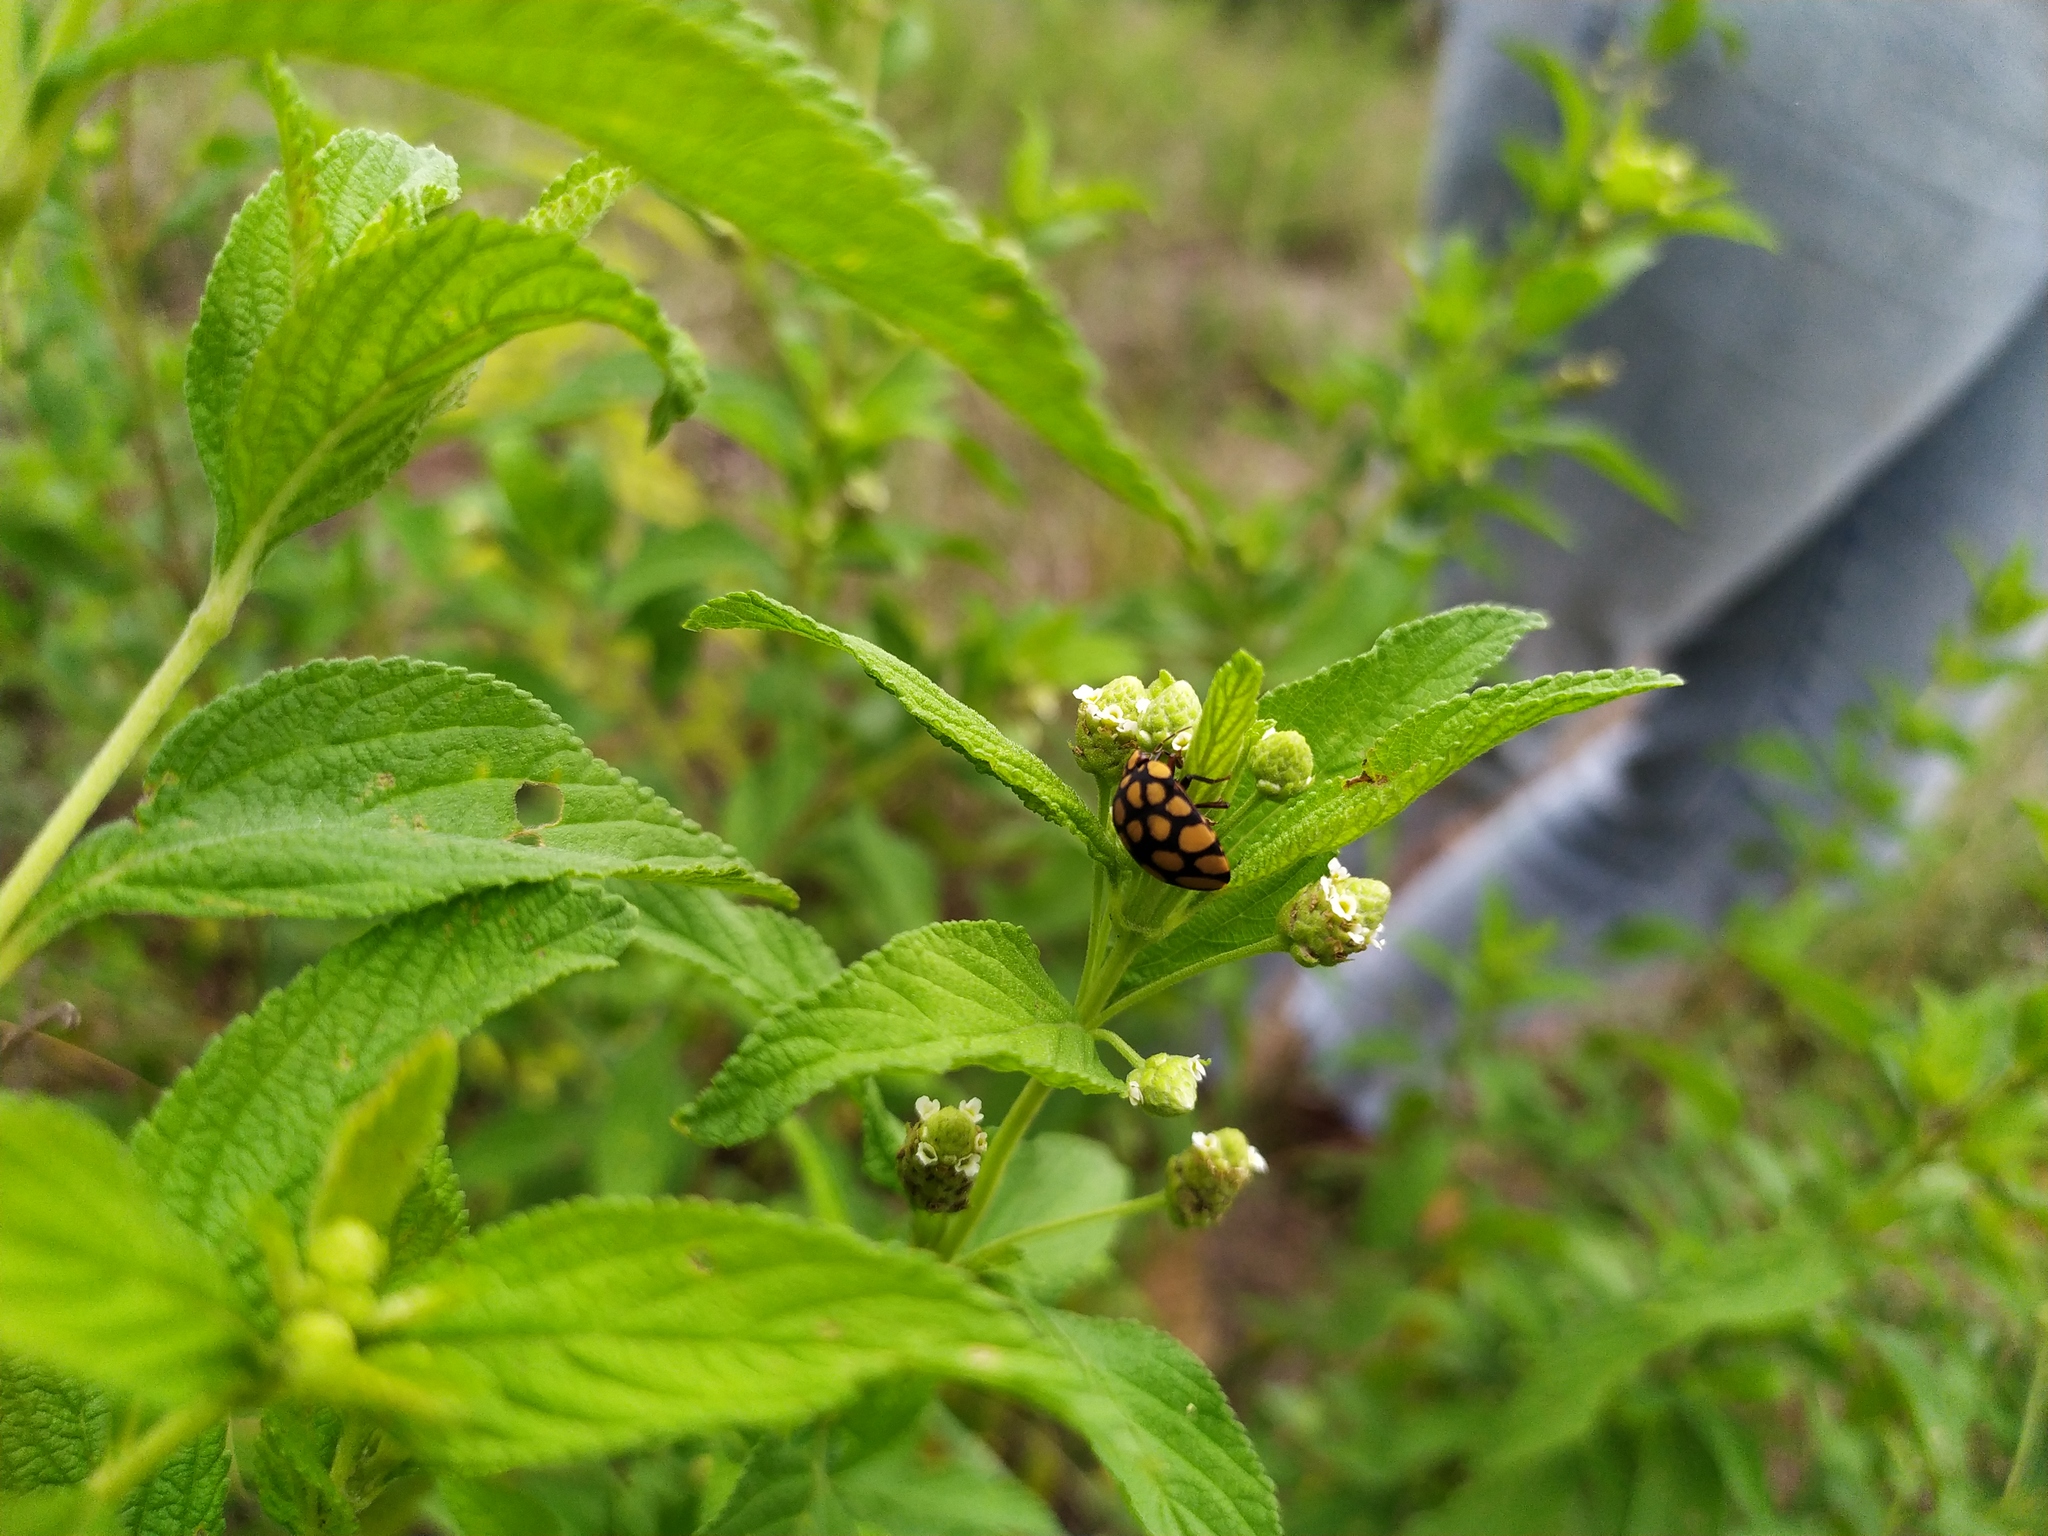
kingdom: Animalia
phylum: Arthropoda
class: Insecta
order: Hemiptera
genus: Steganocerus
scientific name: Steganocerus multipunctatus
